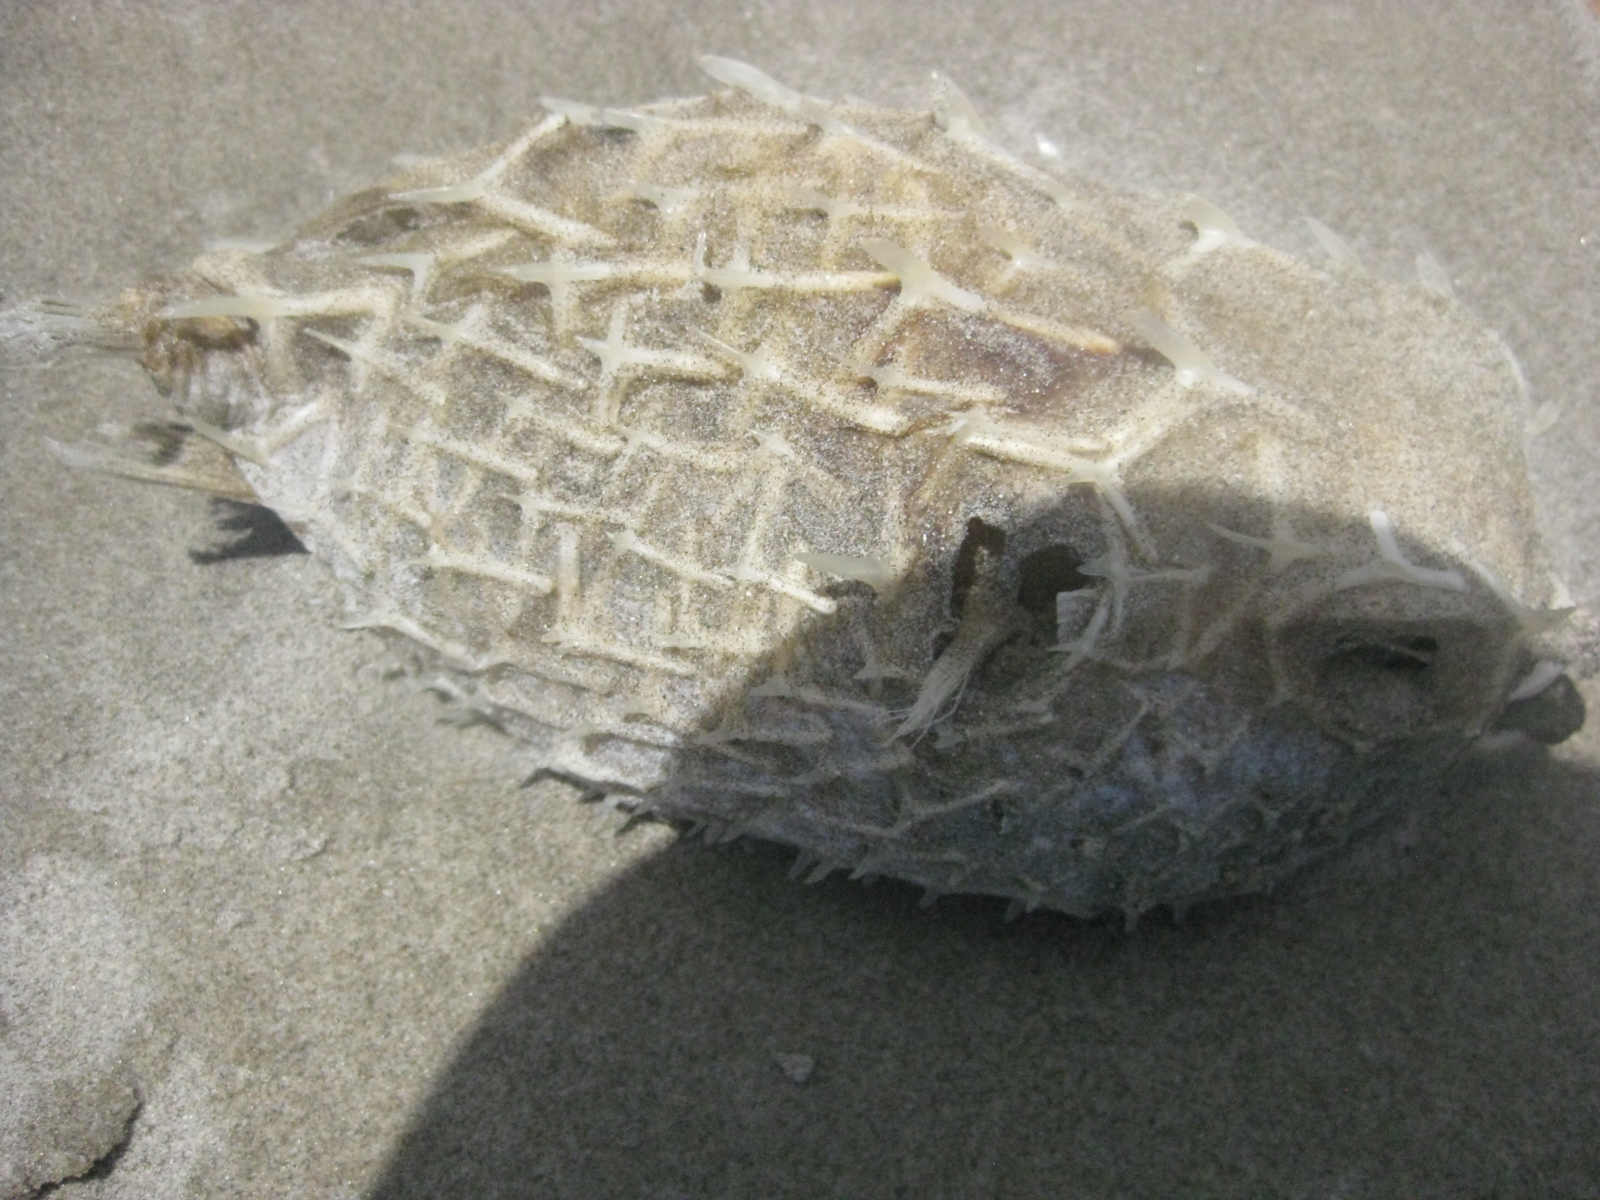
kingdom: Animalia
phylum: Chordata
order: Tetraodontiformes
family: Diodontidae
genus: Allomycterus
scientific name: Allomycterus pilatus
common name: No common name
